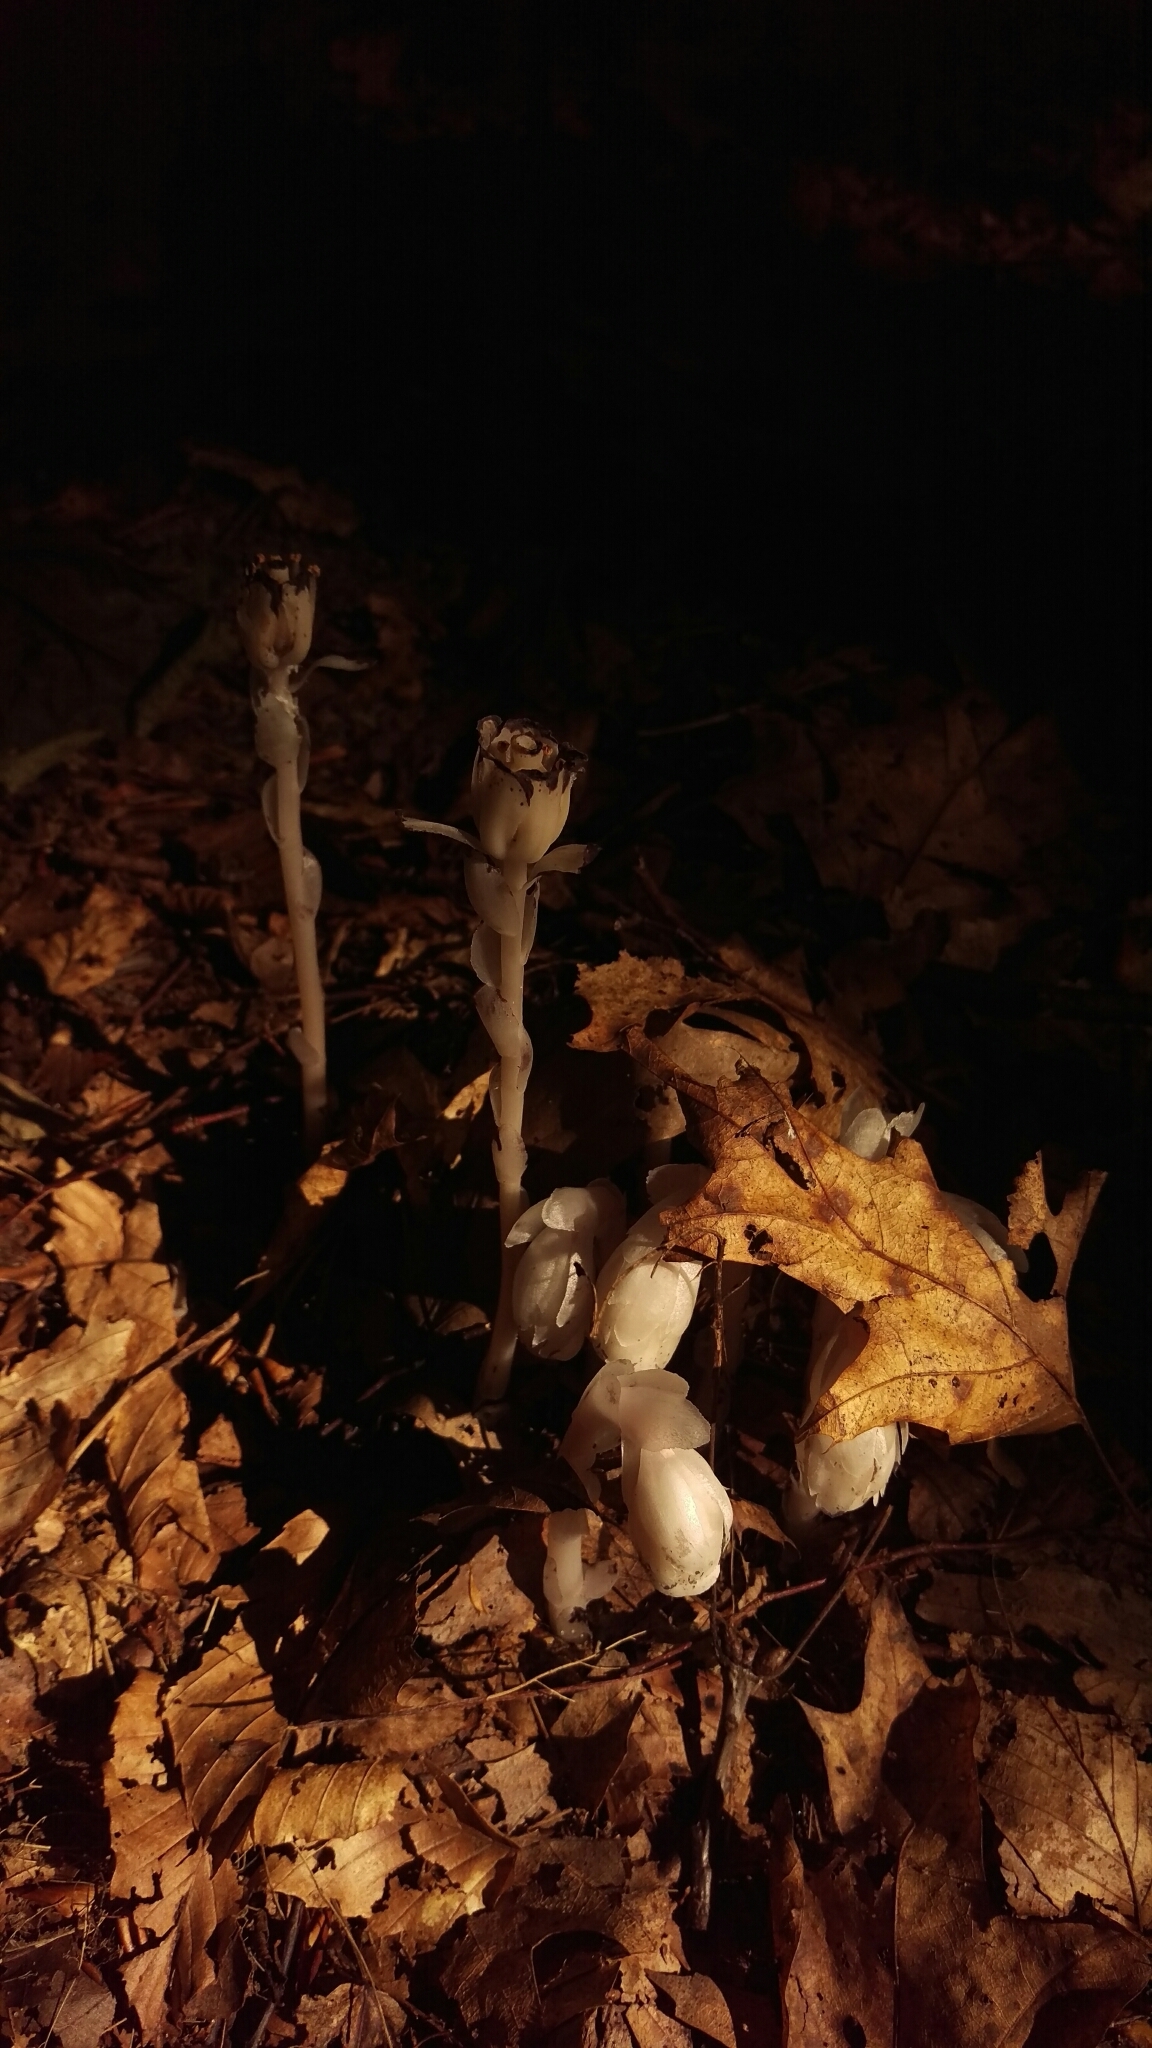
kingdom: Plantae
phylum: Tracheophyta
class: Magnoliopsida
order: Ericales
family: Ericaceae
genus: Monotropa
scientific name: Monotropa uniflora
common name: Convulsion root
